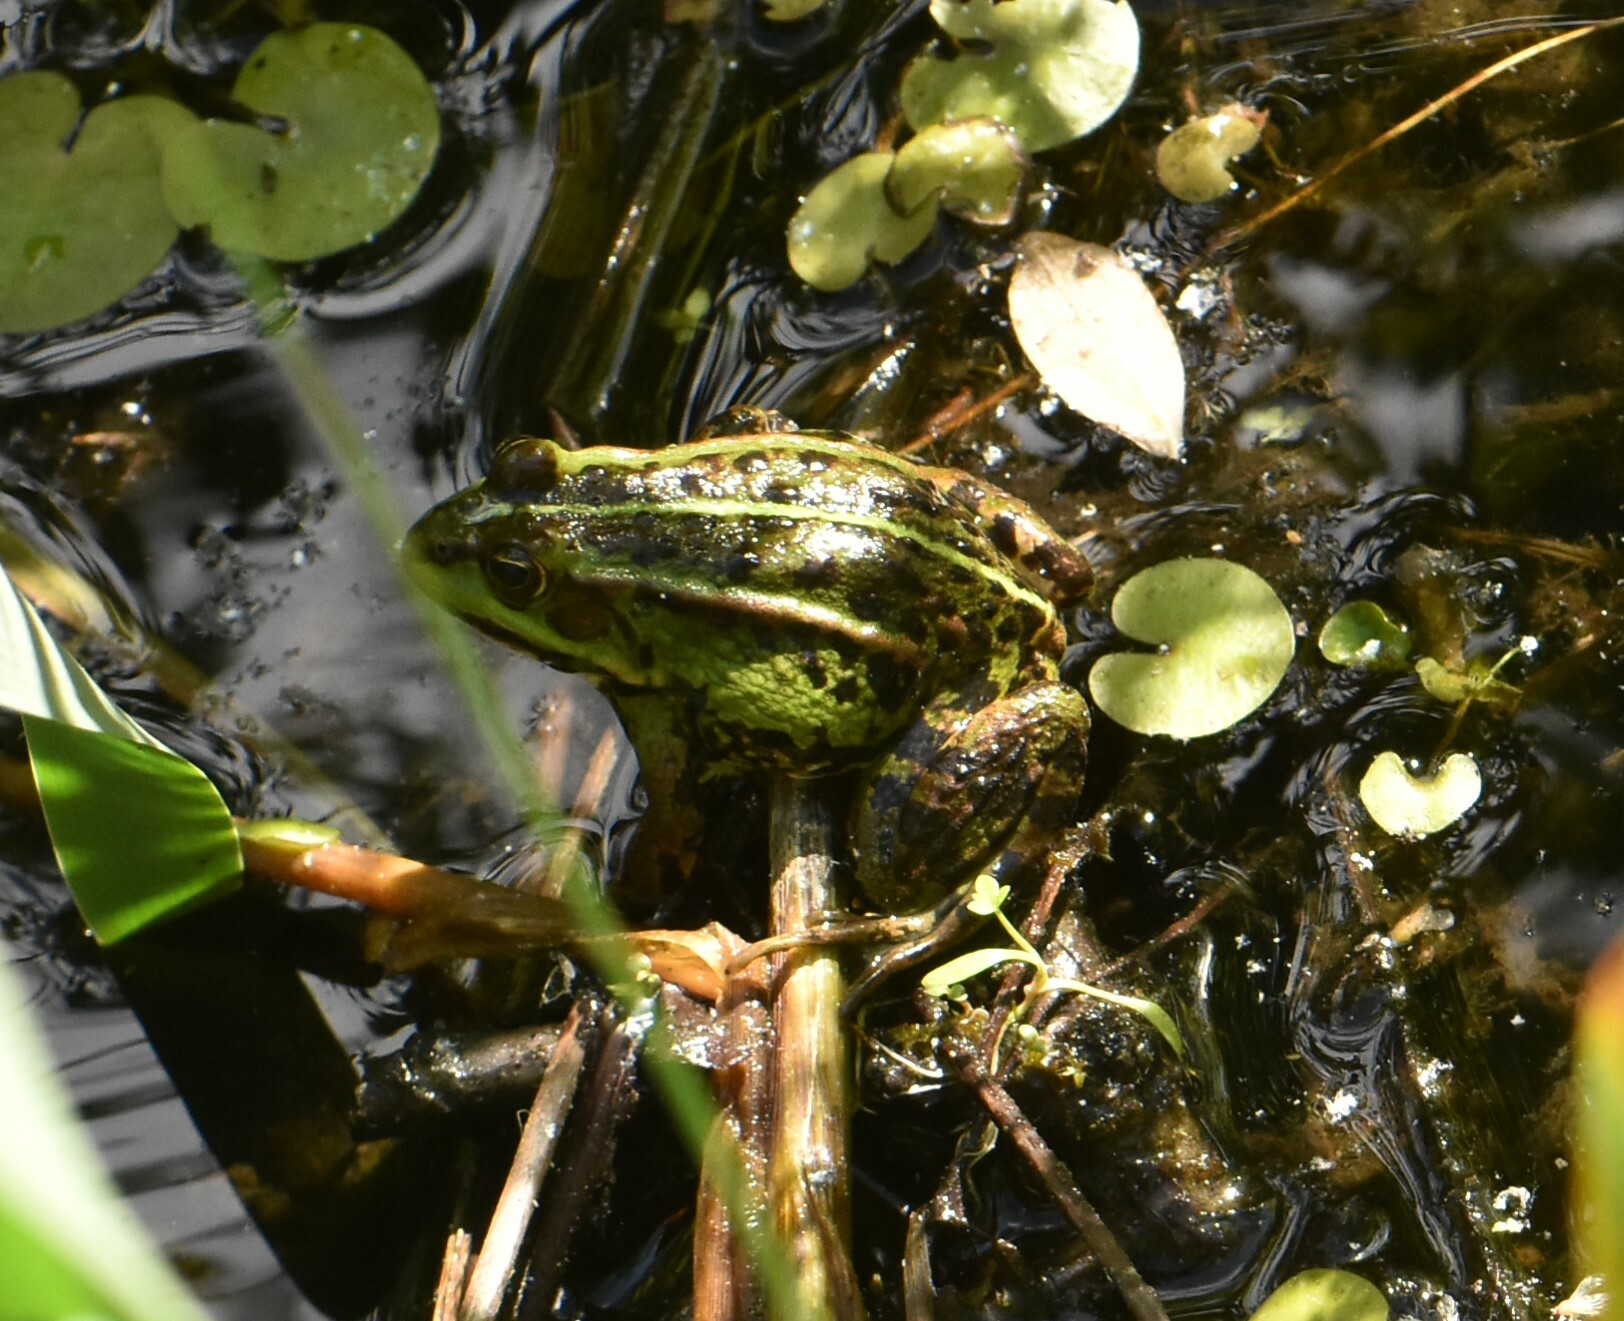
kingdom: Animalia
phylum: Chordata
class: Amphibia
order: Anura
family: Ranidae
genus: Pelophylax
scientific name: Pelophylax lessonae
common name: Pool frog
